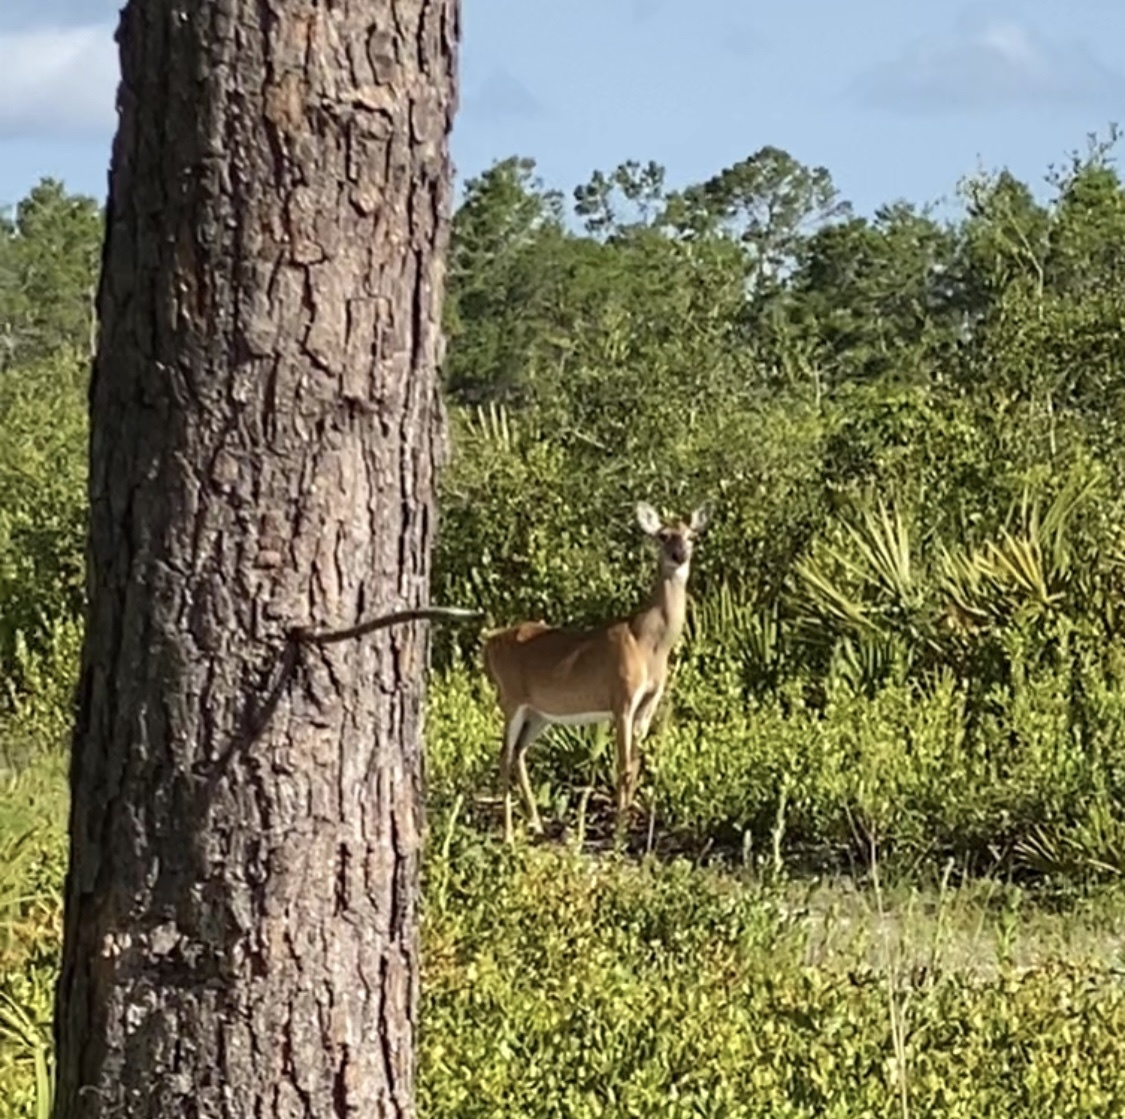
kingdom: Animalia
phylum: Chordata
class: Mammalia
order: Artiodactyla
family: Cervidae
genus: Odocoileus
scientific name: Odocoileus virginianus
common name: White-tailed deer
